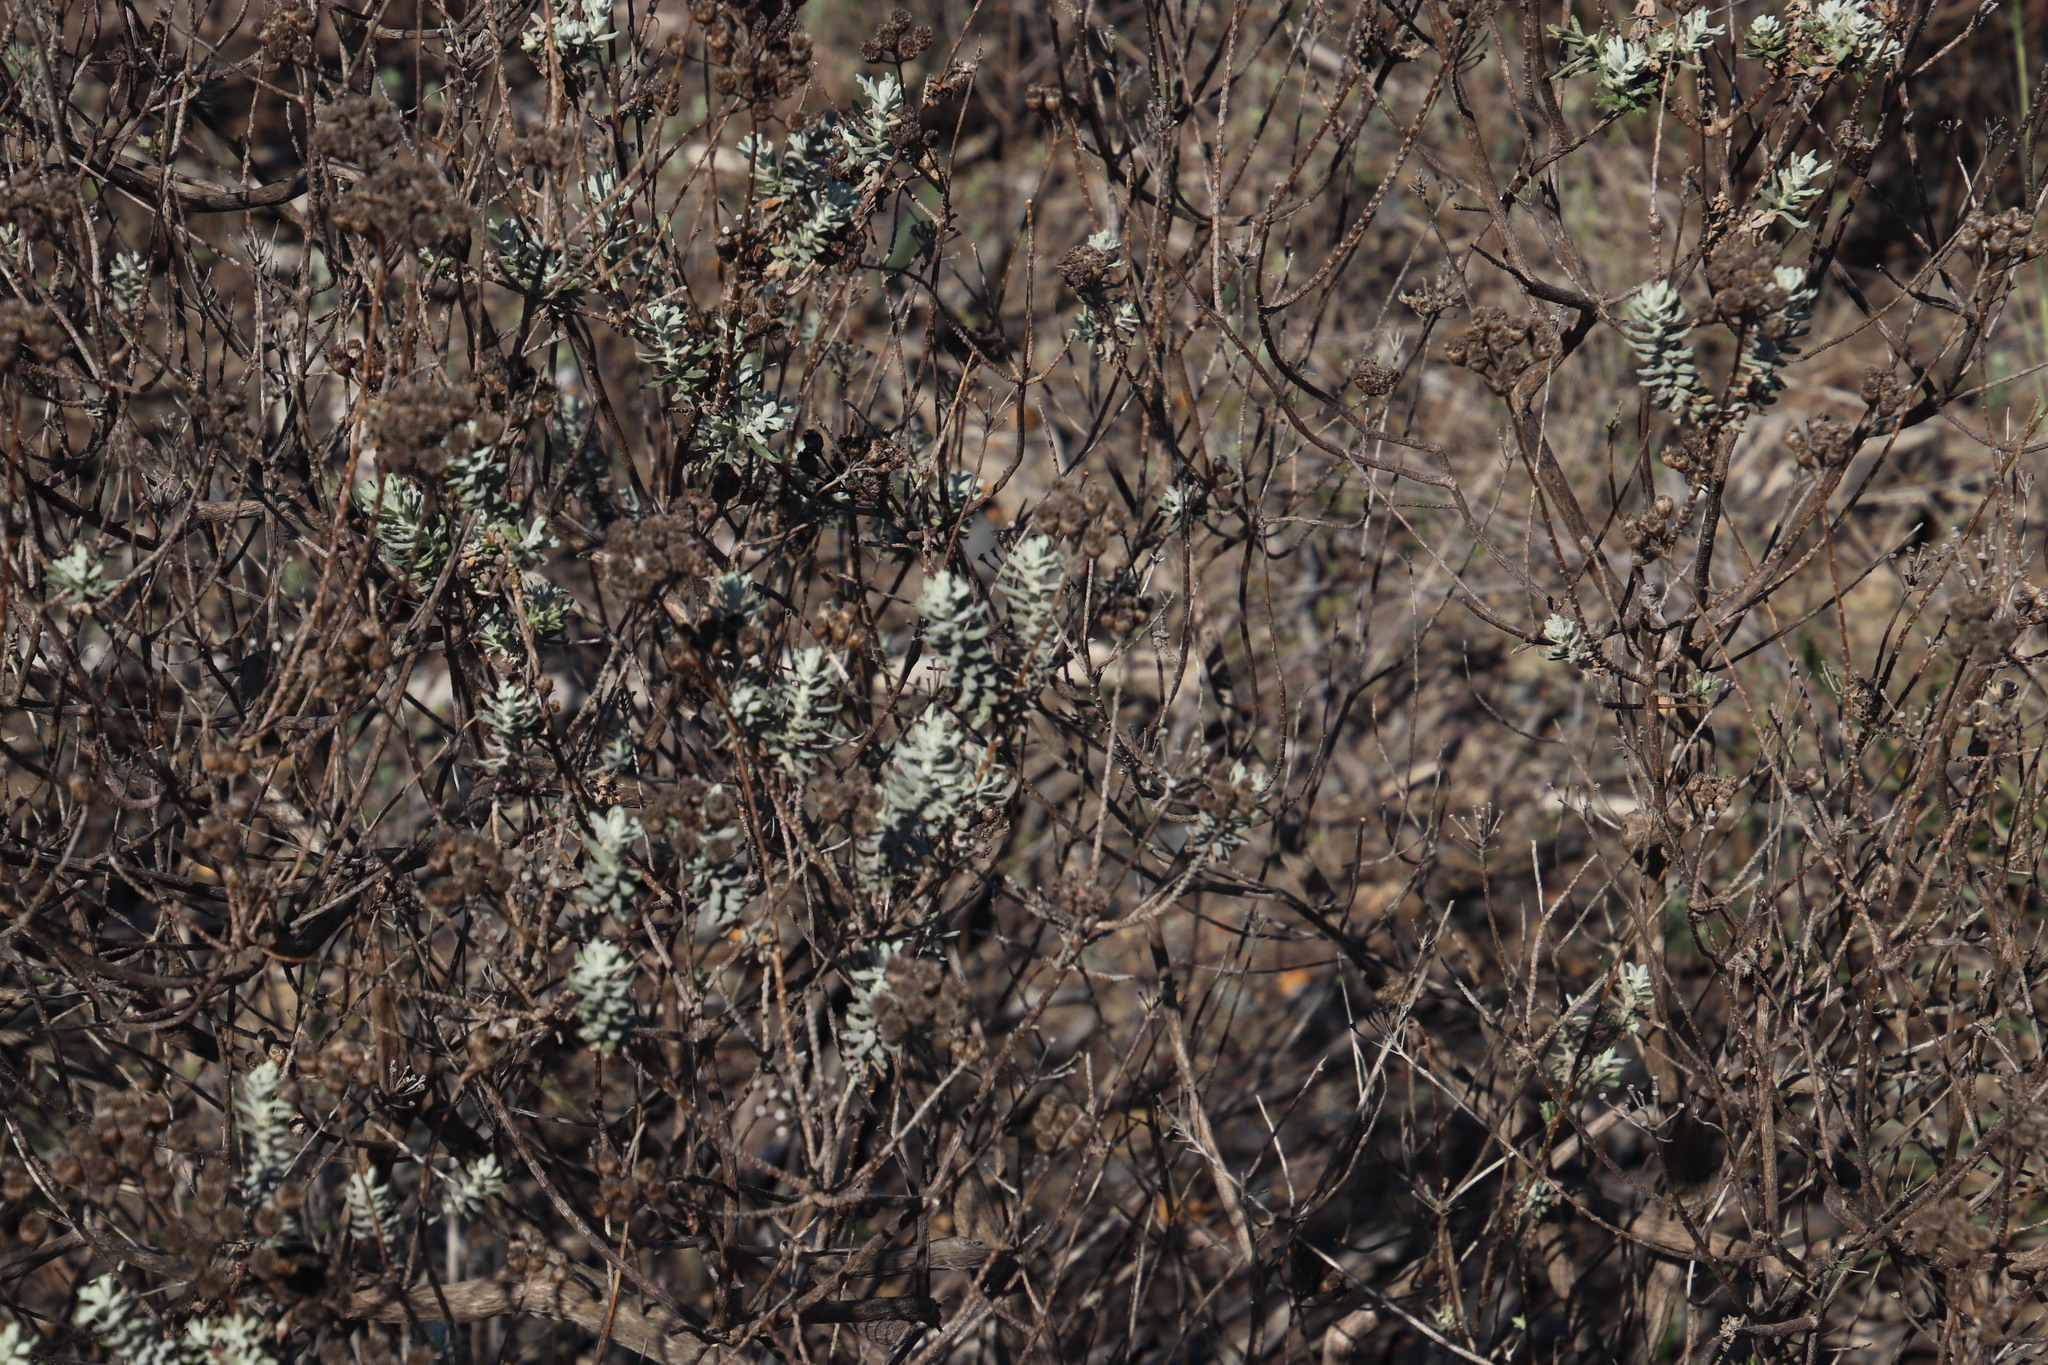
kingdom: Plantae
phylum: Tracheophyta
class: Magnoliopsida
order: Asterales
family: Asteraceae
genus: Athanasia
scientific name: Athanasia trifurcata
